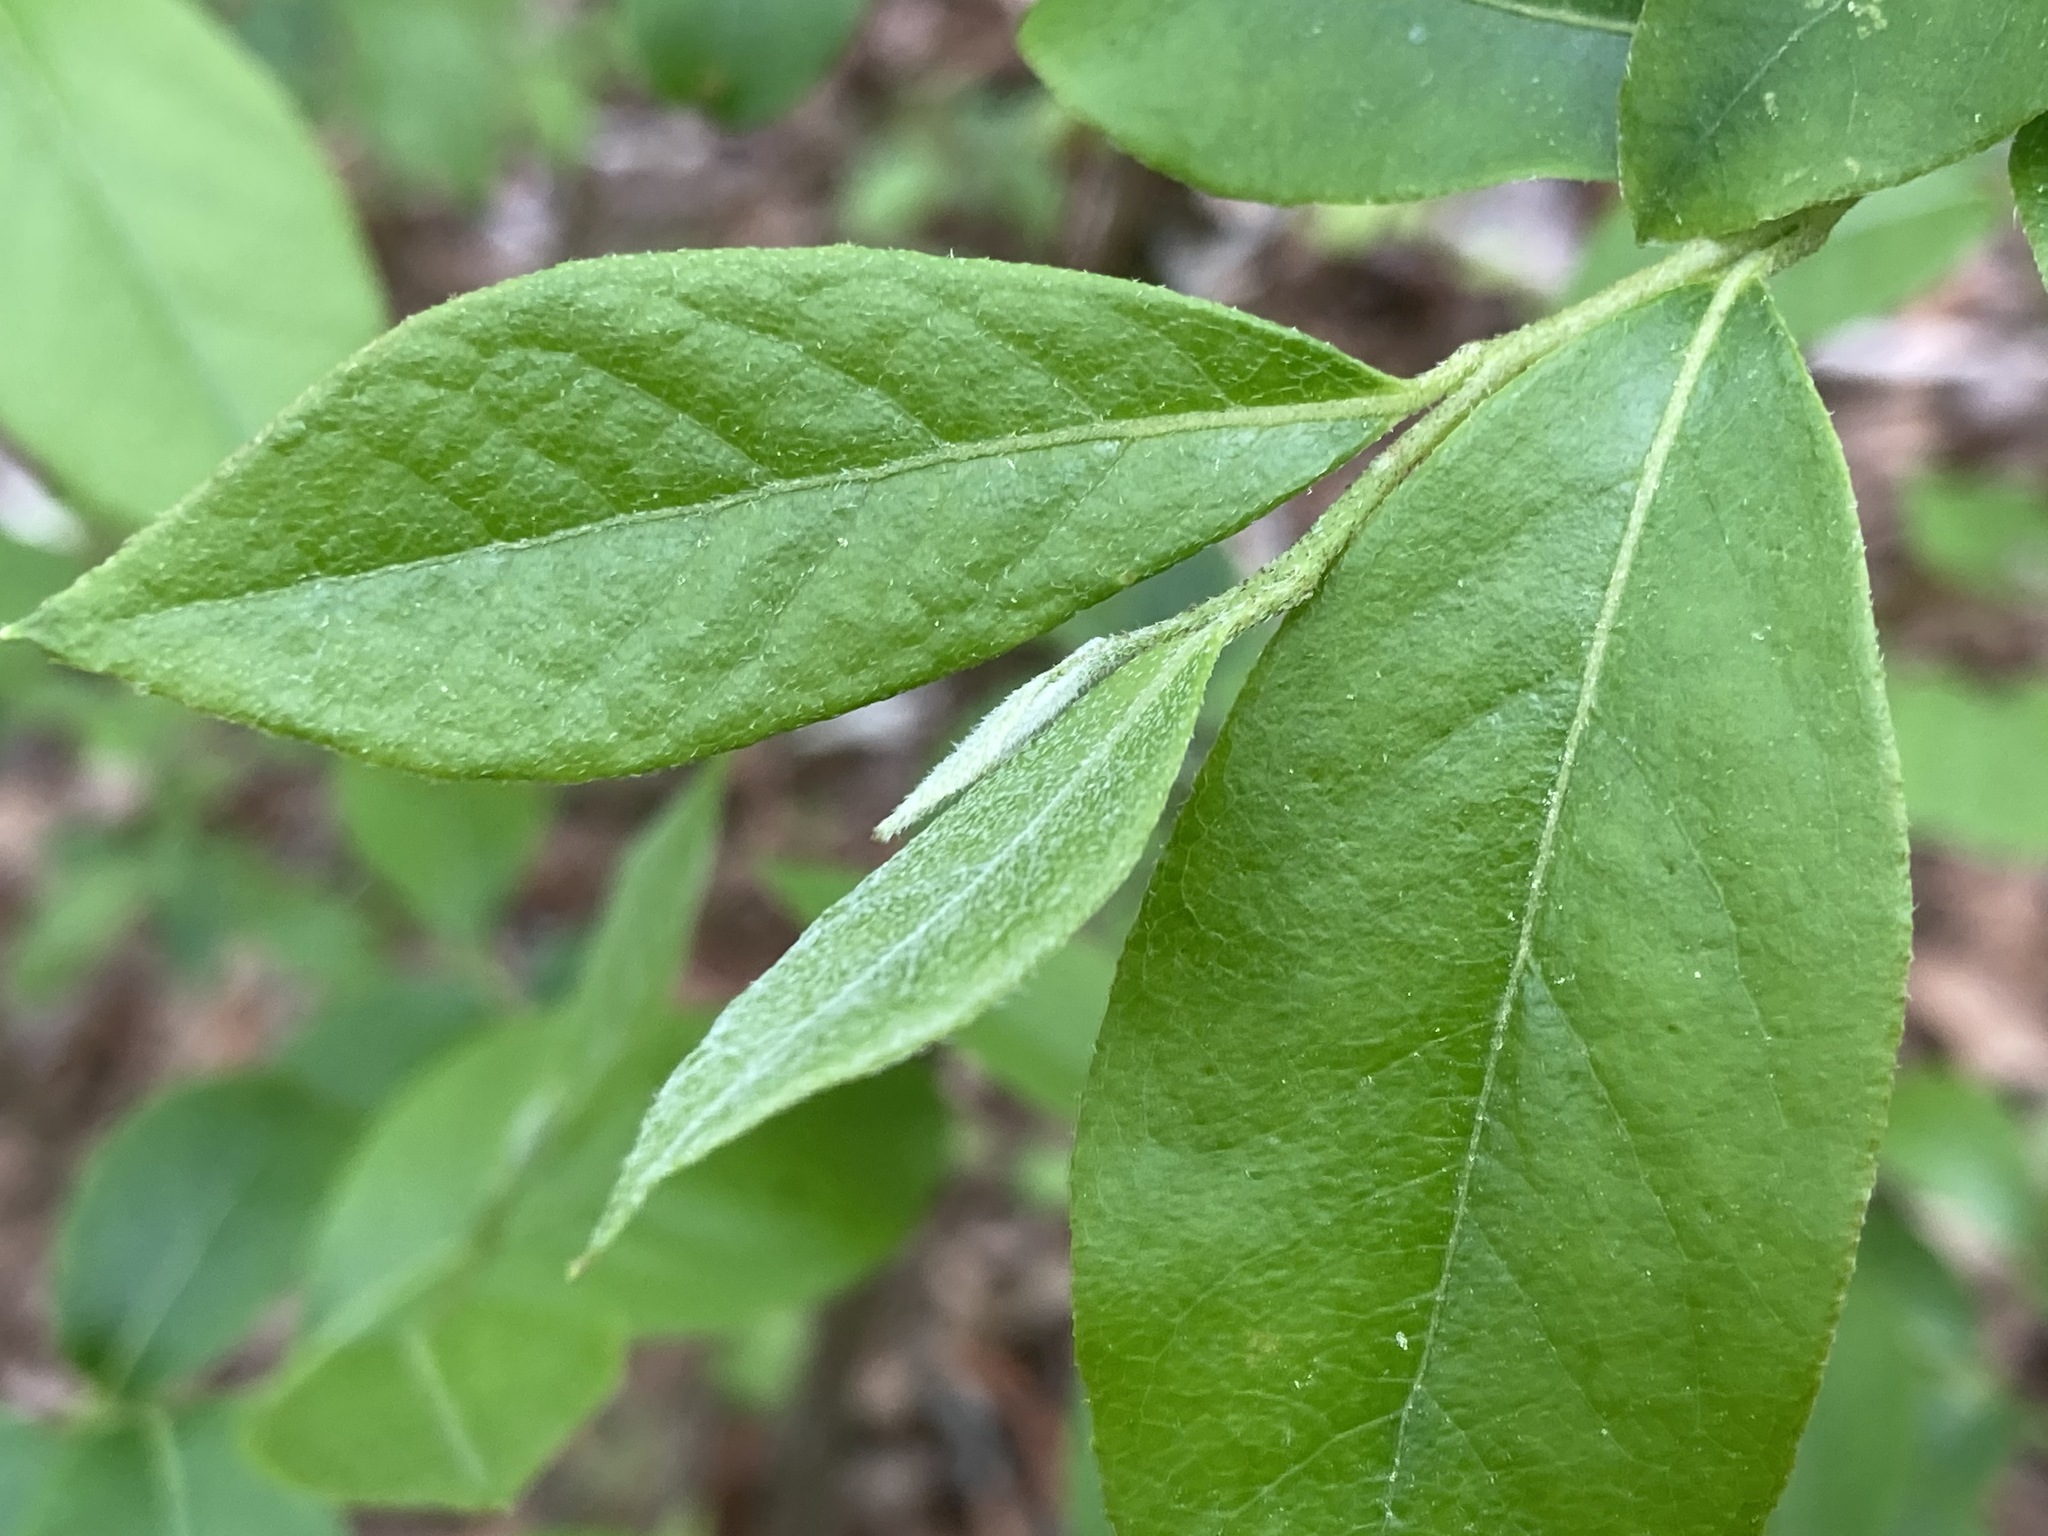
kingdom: Plantae
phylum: Tracheophyta
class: Magnoliopsida
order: Ericales
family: Ericaceae
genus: Lyonia
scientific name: Lyonia ligustrina
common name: Maleberry
